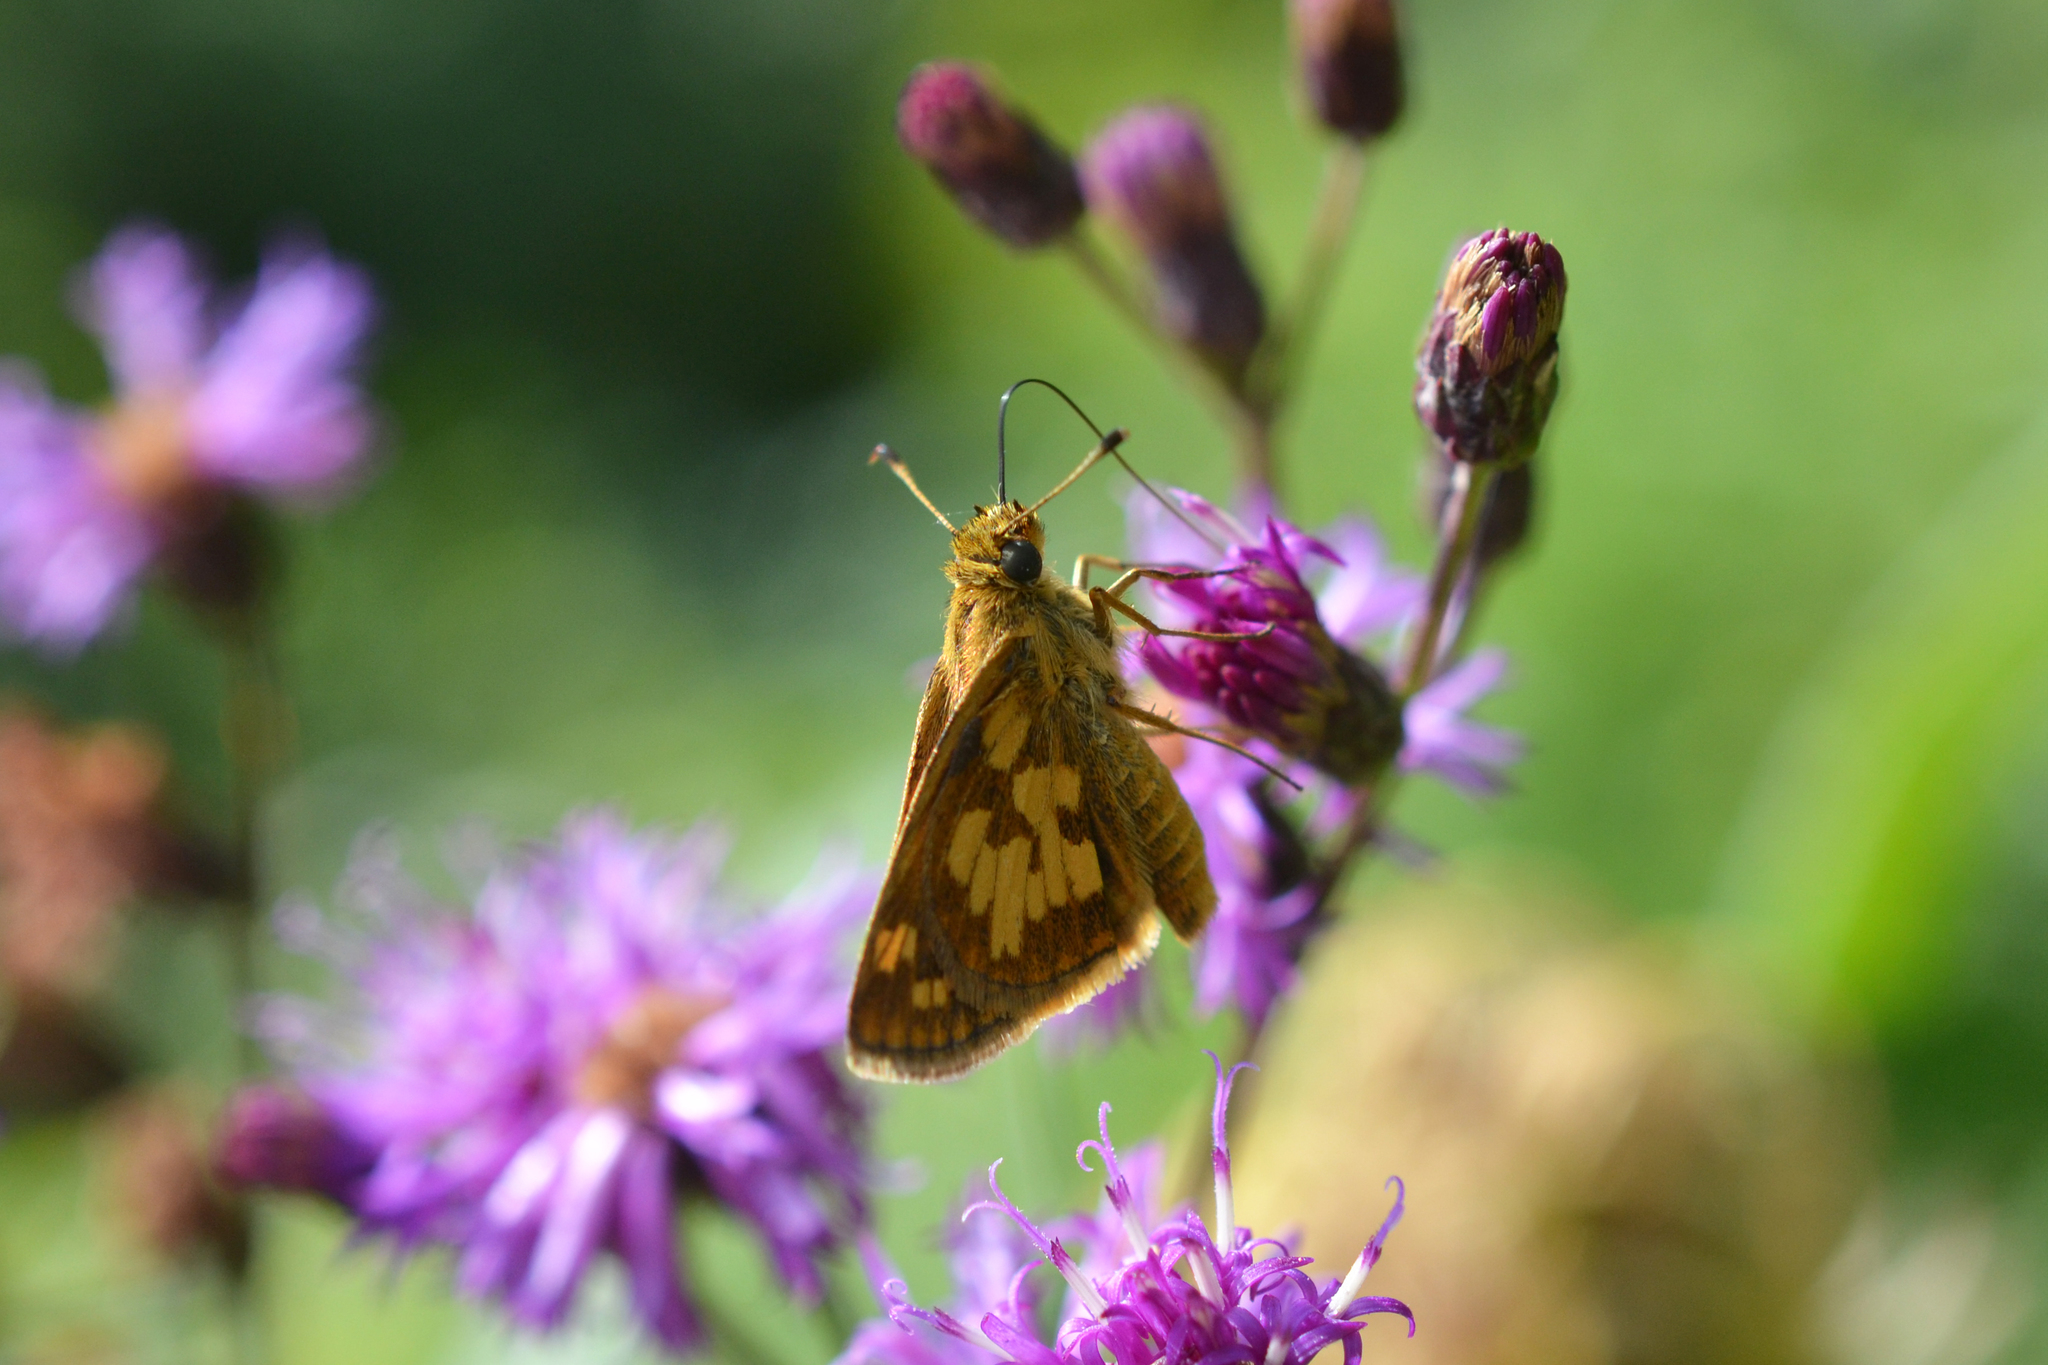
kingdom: Animalia
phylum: Arthropoda
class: Insecta
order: Lepidoptera
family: Hesperiidae
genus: Polites
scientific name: Polites coras
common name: Peck's skipper
